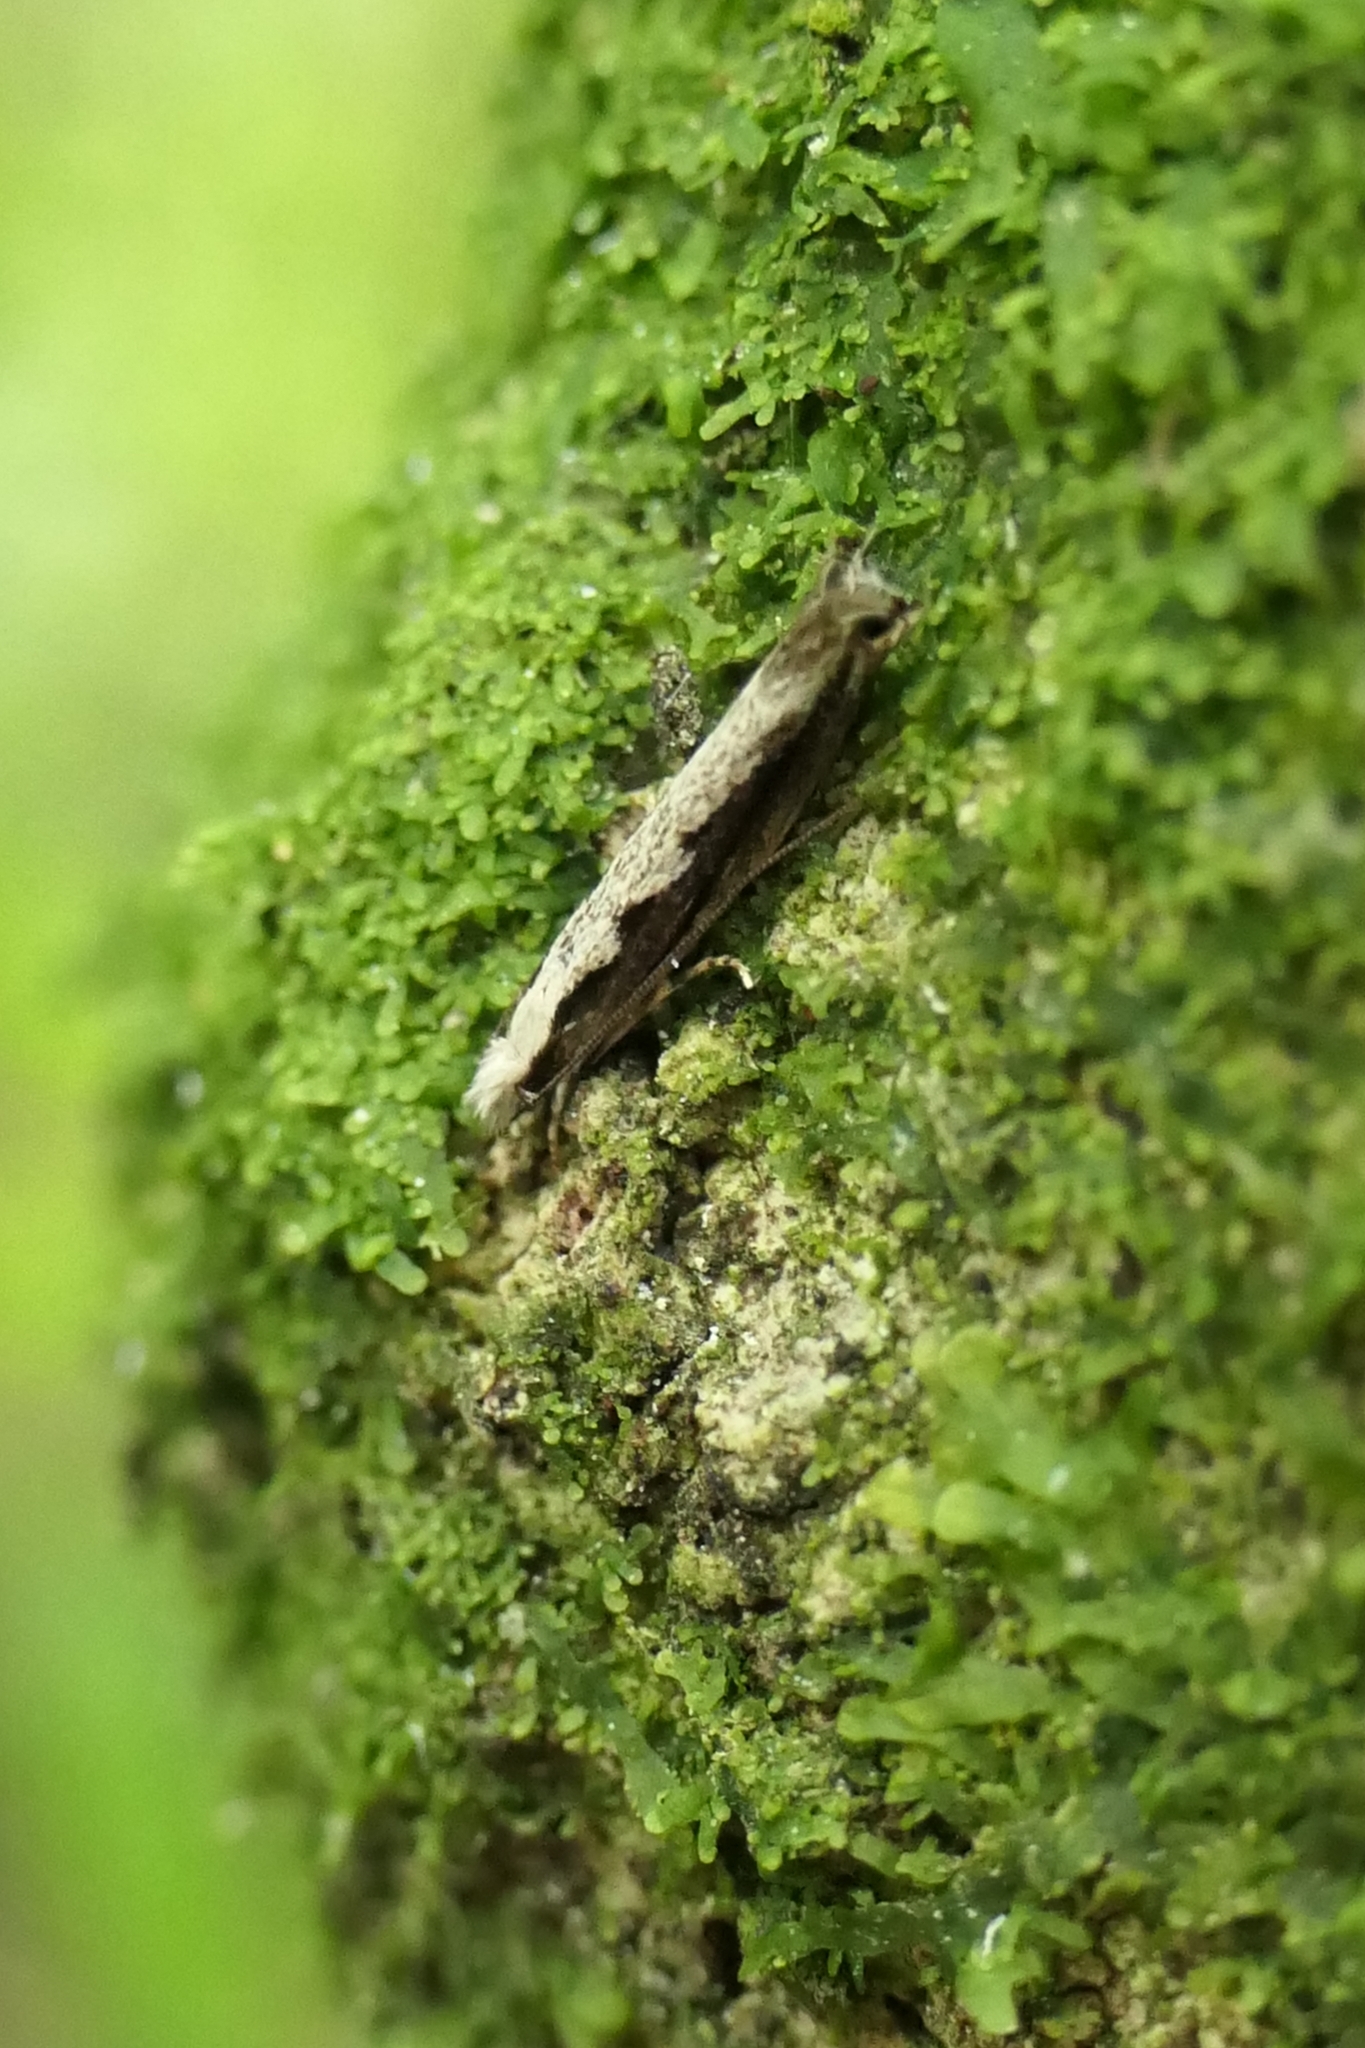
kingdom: Animalia
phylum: Arthropoda
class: Insecta
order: Lepidoptera
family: Tineidae
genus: Erechthias
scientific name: Erechthias fulguritella
